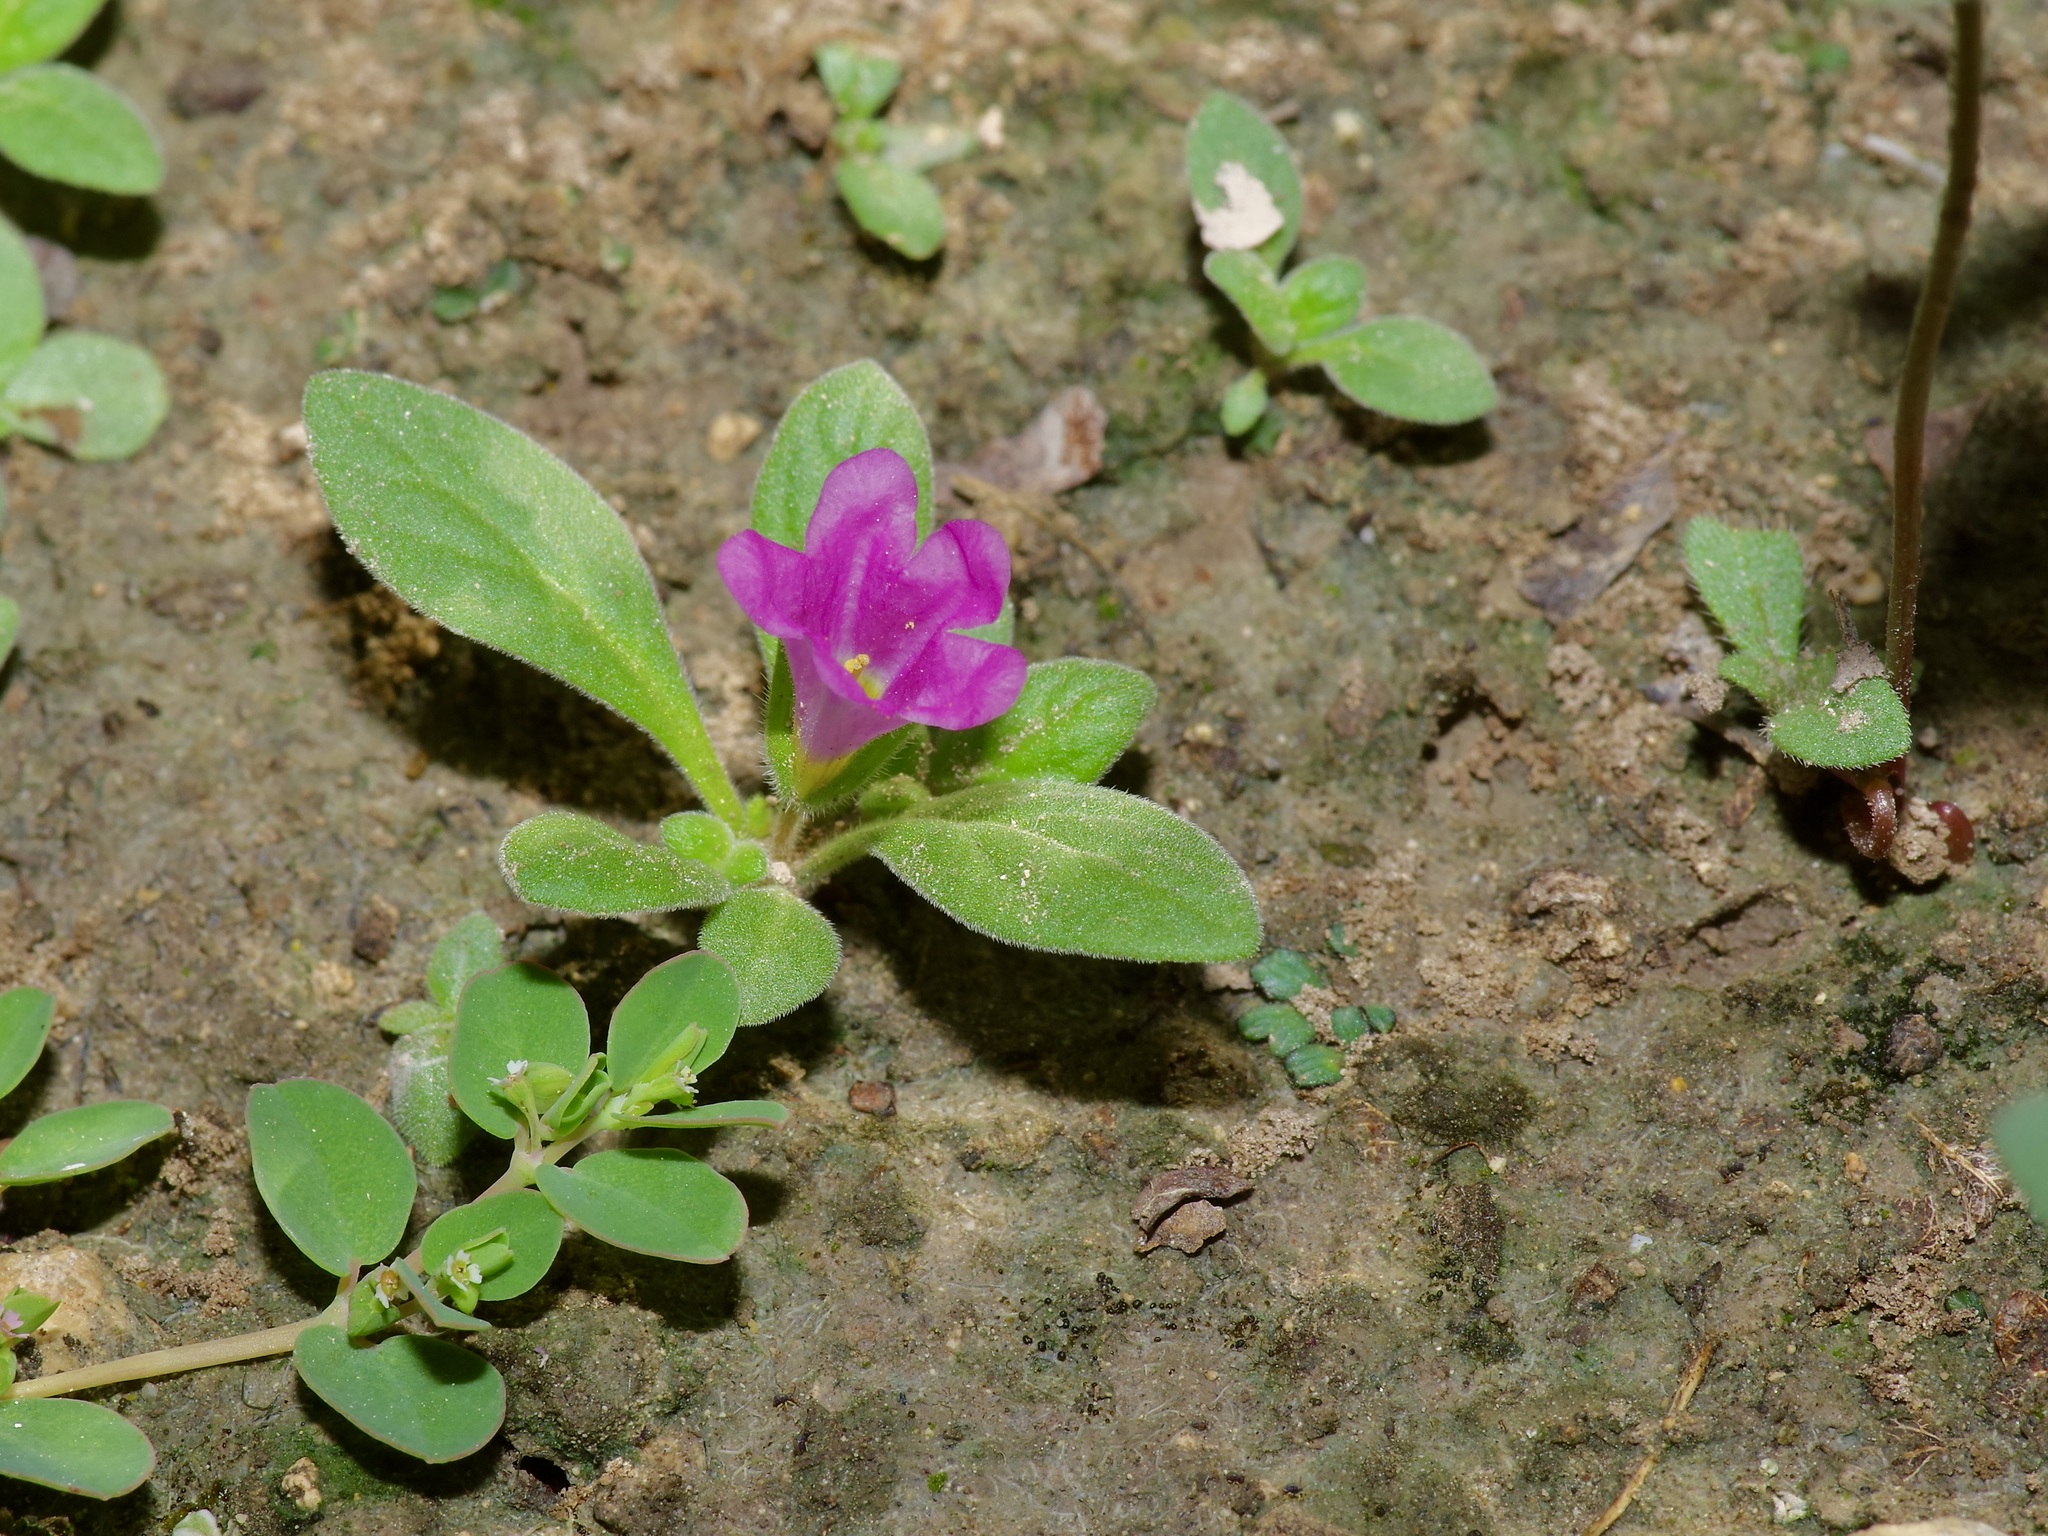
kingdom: Plantae
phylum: Tracheophyta
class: Magnoliopsida
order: Boraginales
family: Namaceae
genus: Nama
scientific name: Nama hispida
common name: Bristly nama
